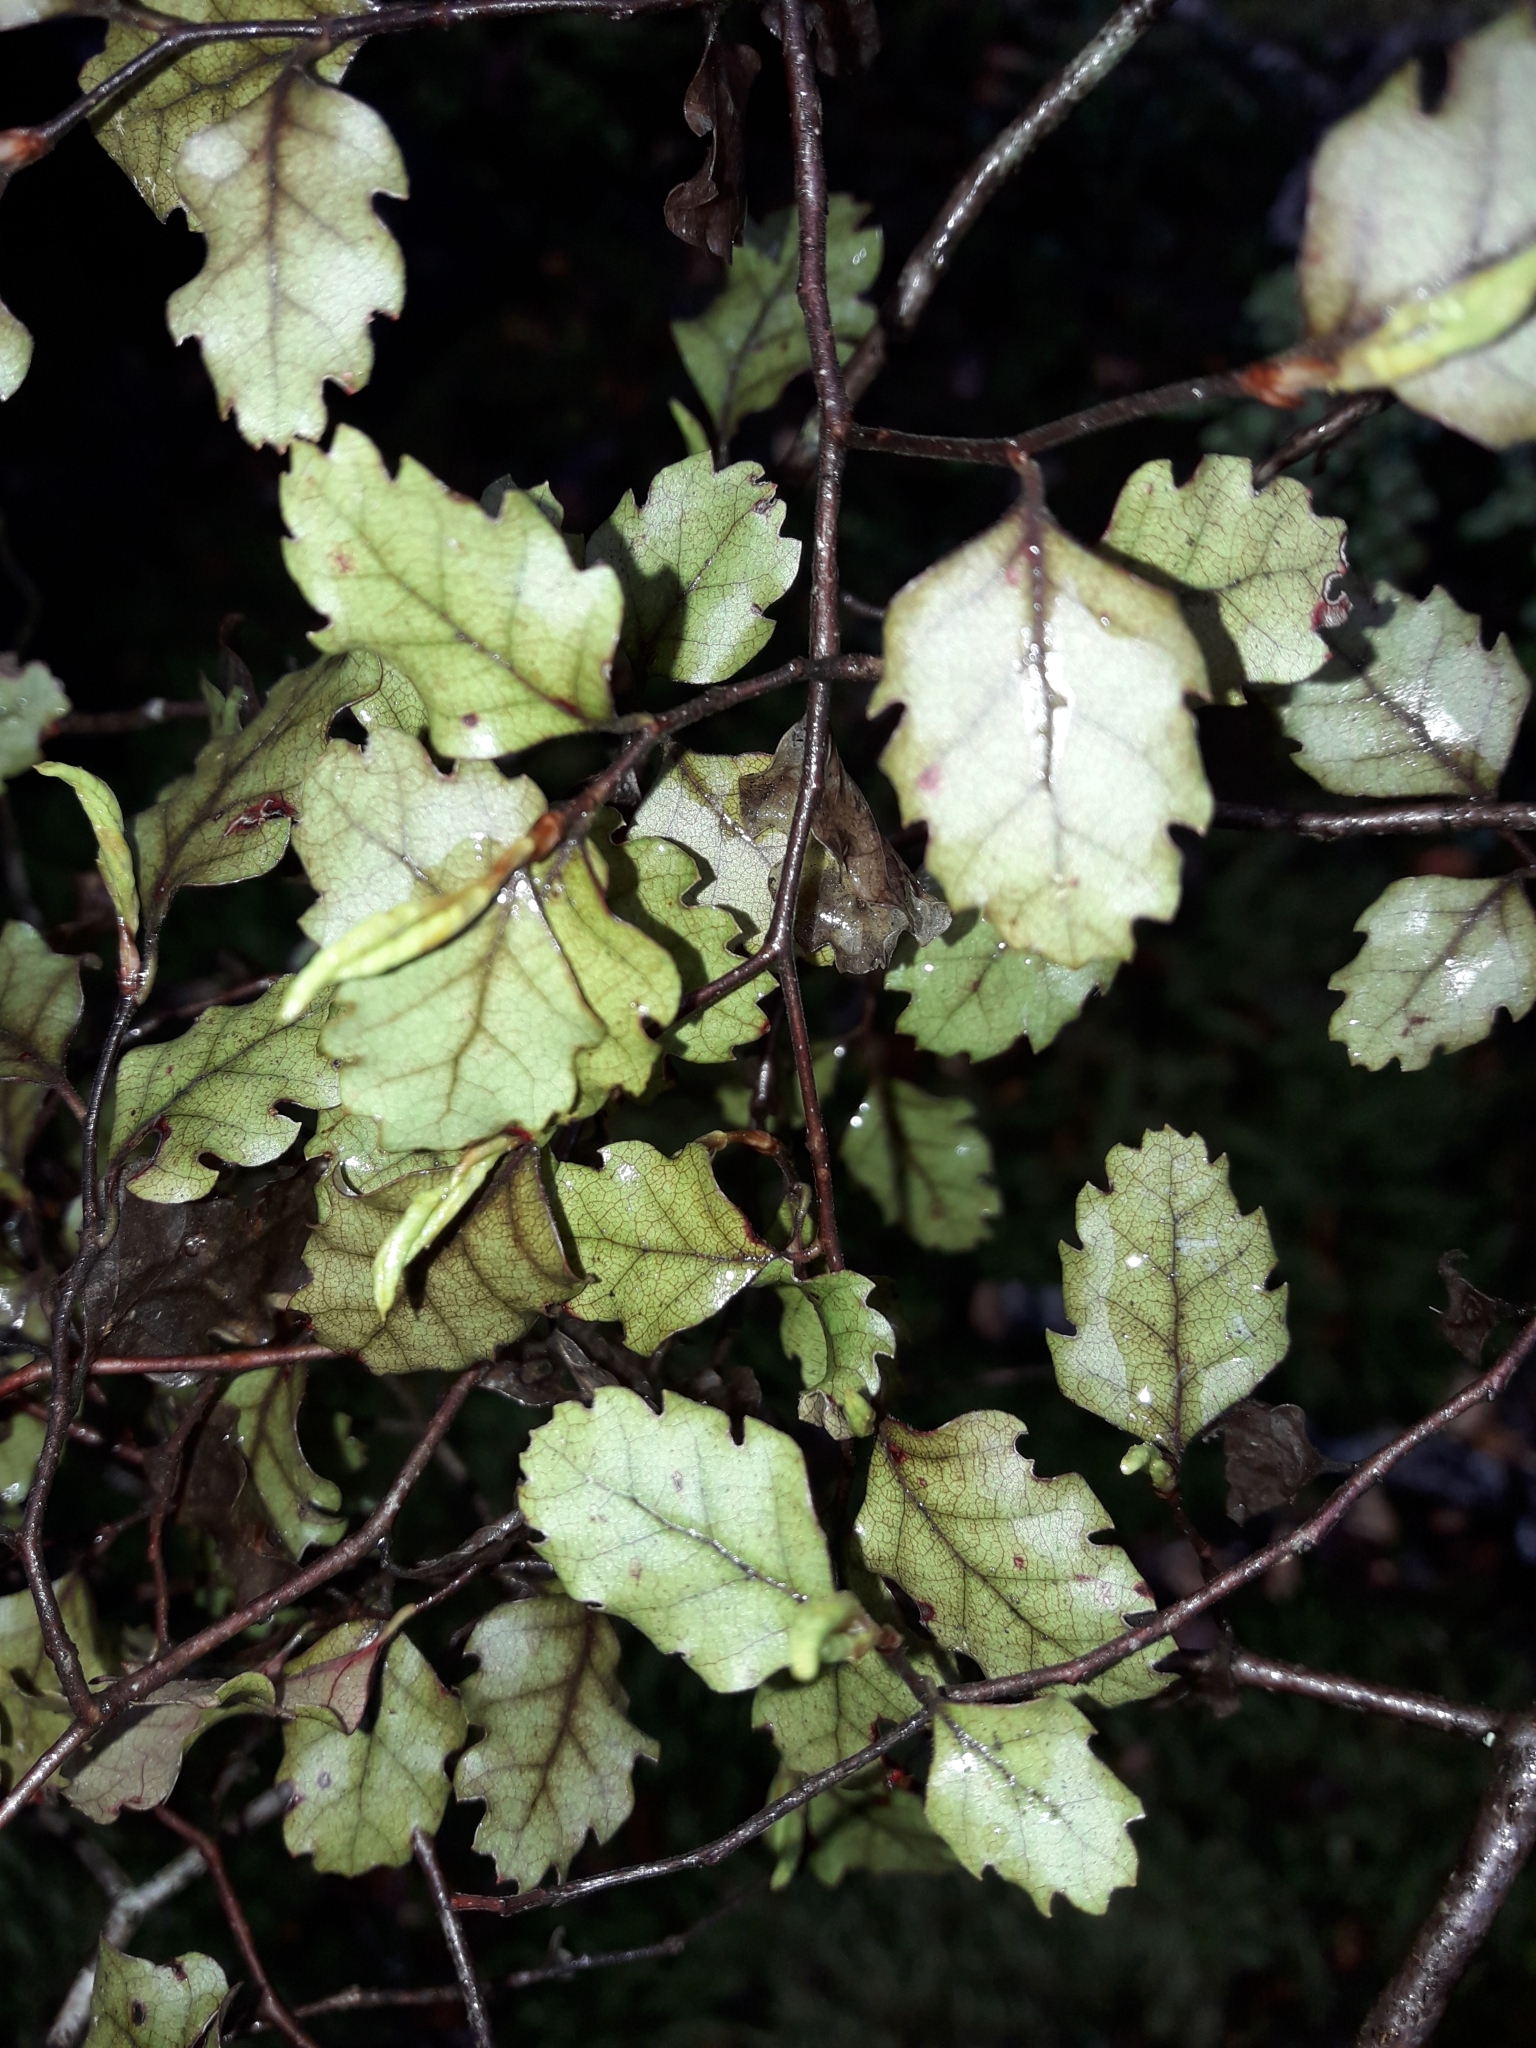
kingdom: Plantae
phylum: Tracheophyta
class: Magnoliopsida
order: Fagales
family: Nothofagaceae
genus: Nothofagus
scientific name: Nothofagus fusca
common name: Red beech
